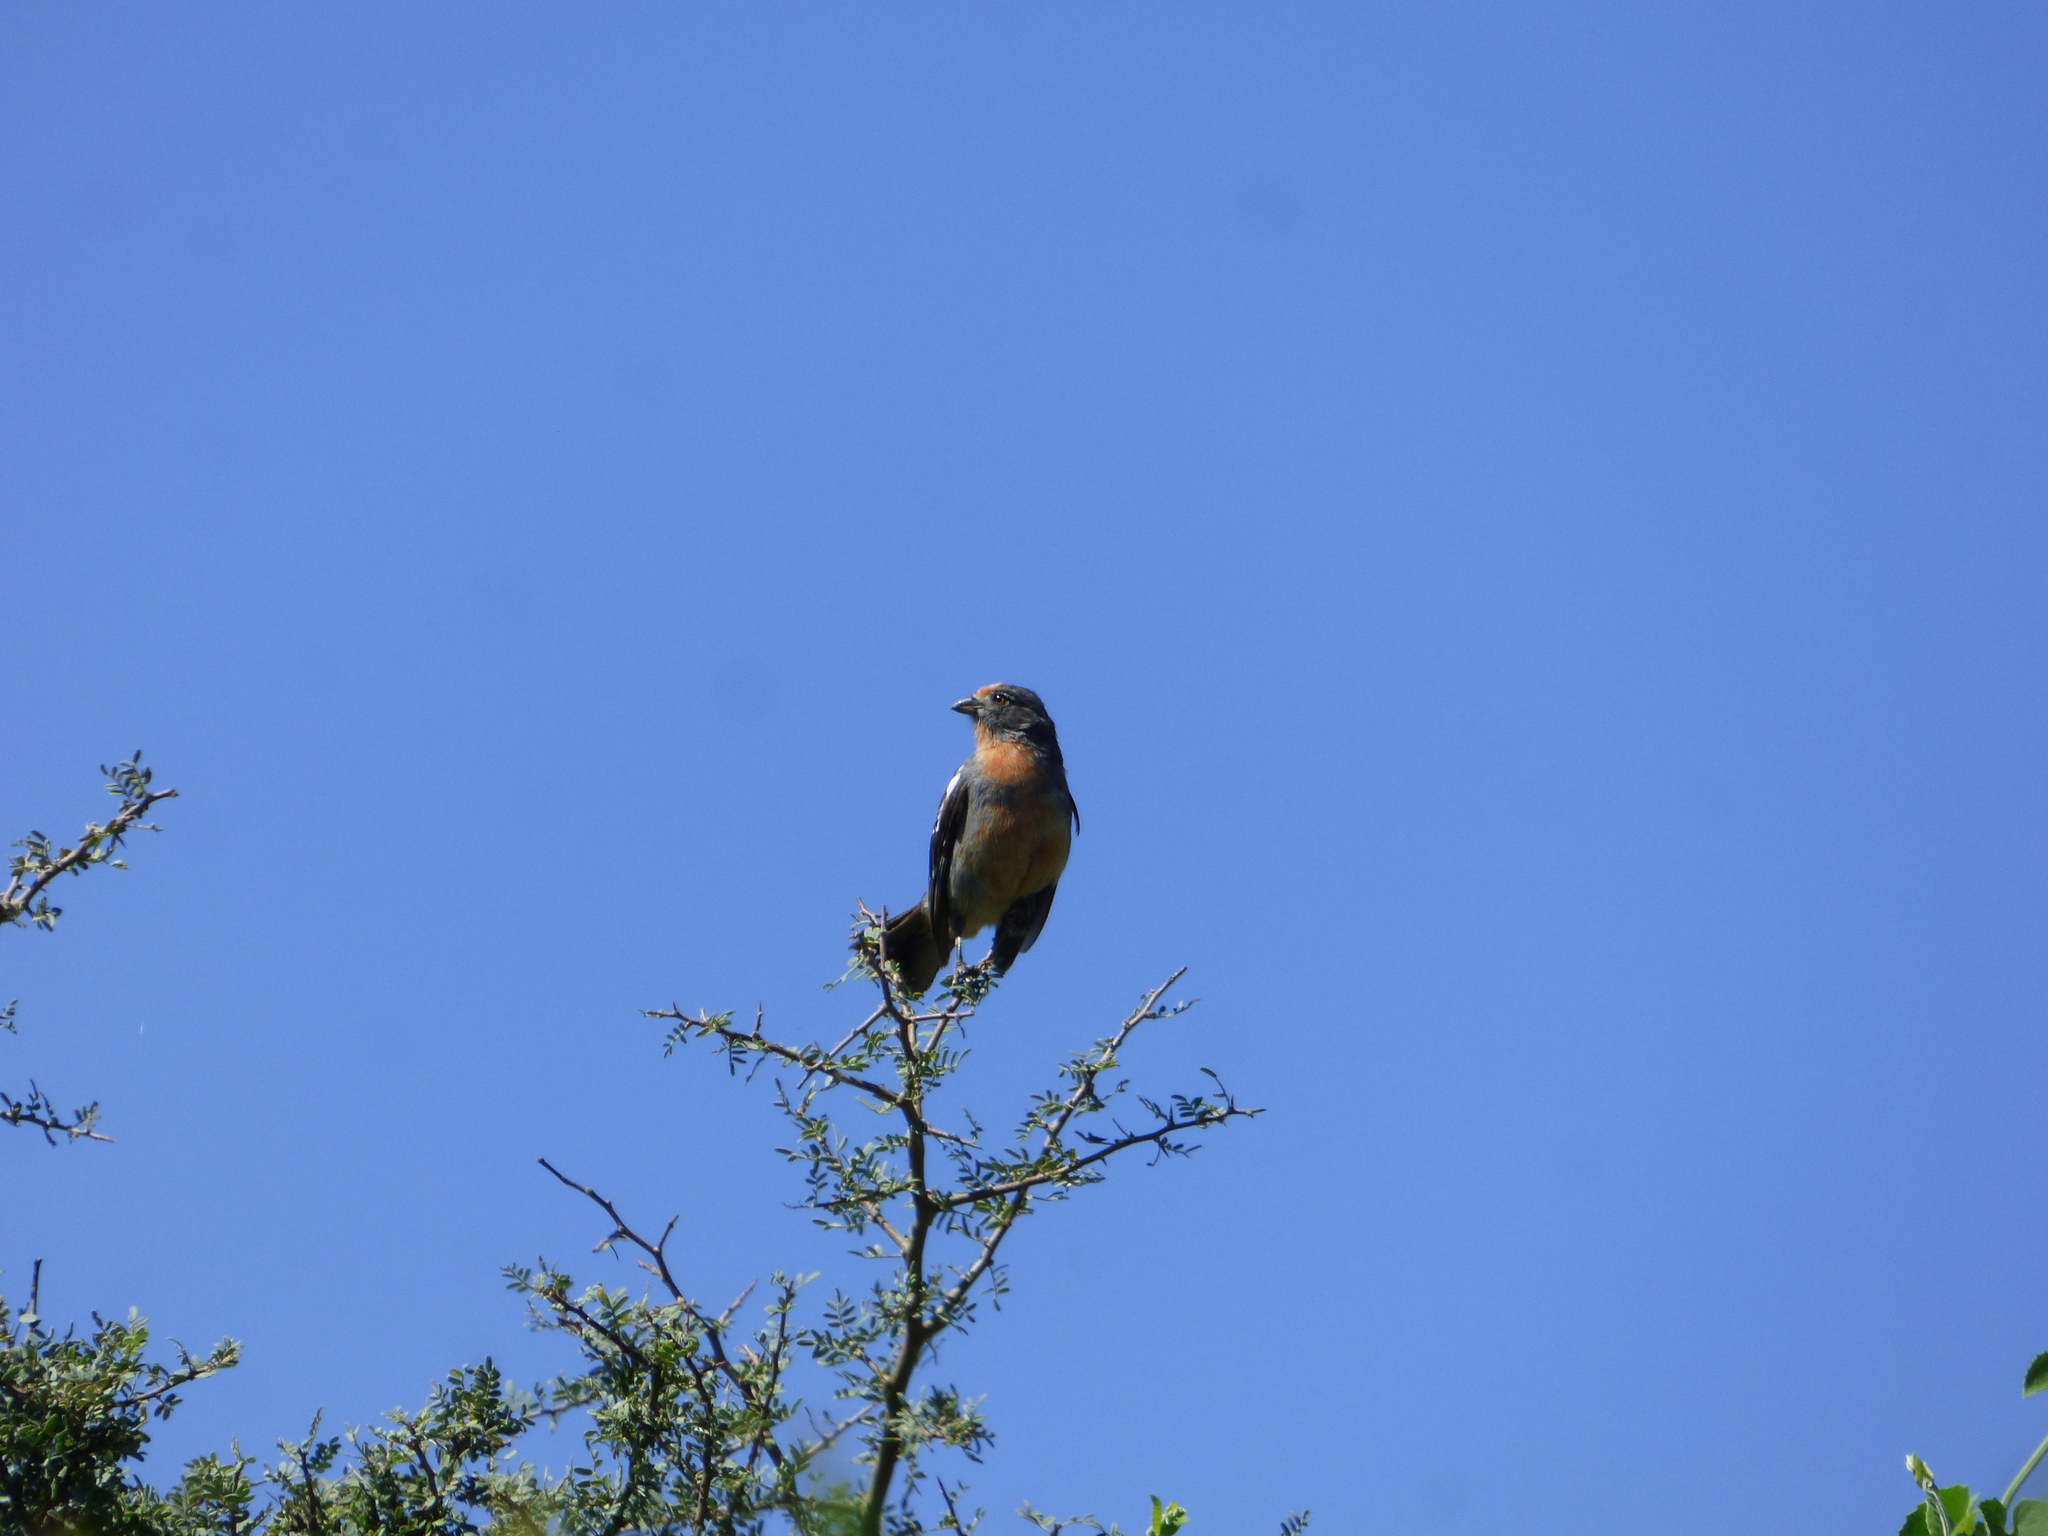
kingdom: Animalia
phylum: Chordata
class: Aves
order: Passeriformes
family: Cotingidae
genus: Phytotoma
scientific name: Phytotoma rutila
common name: White-tipped plantcutter
